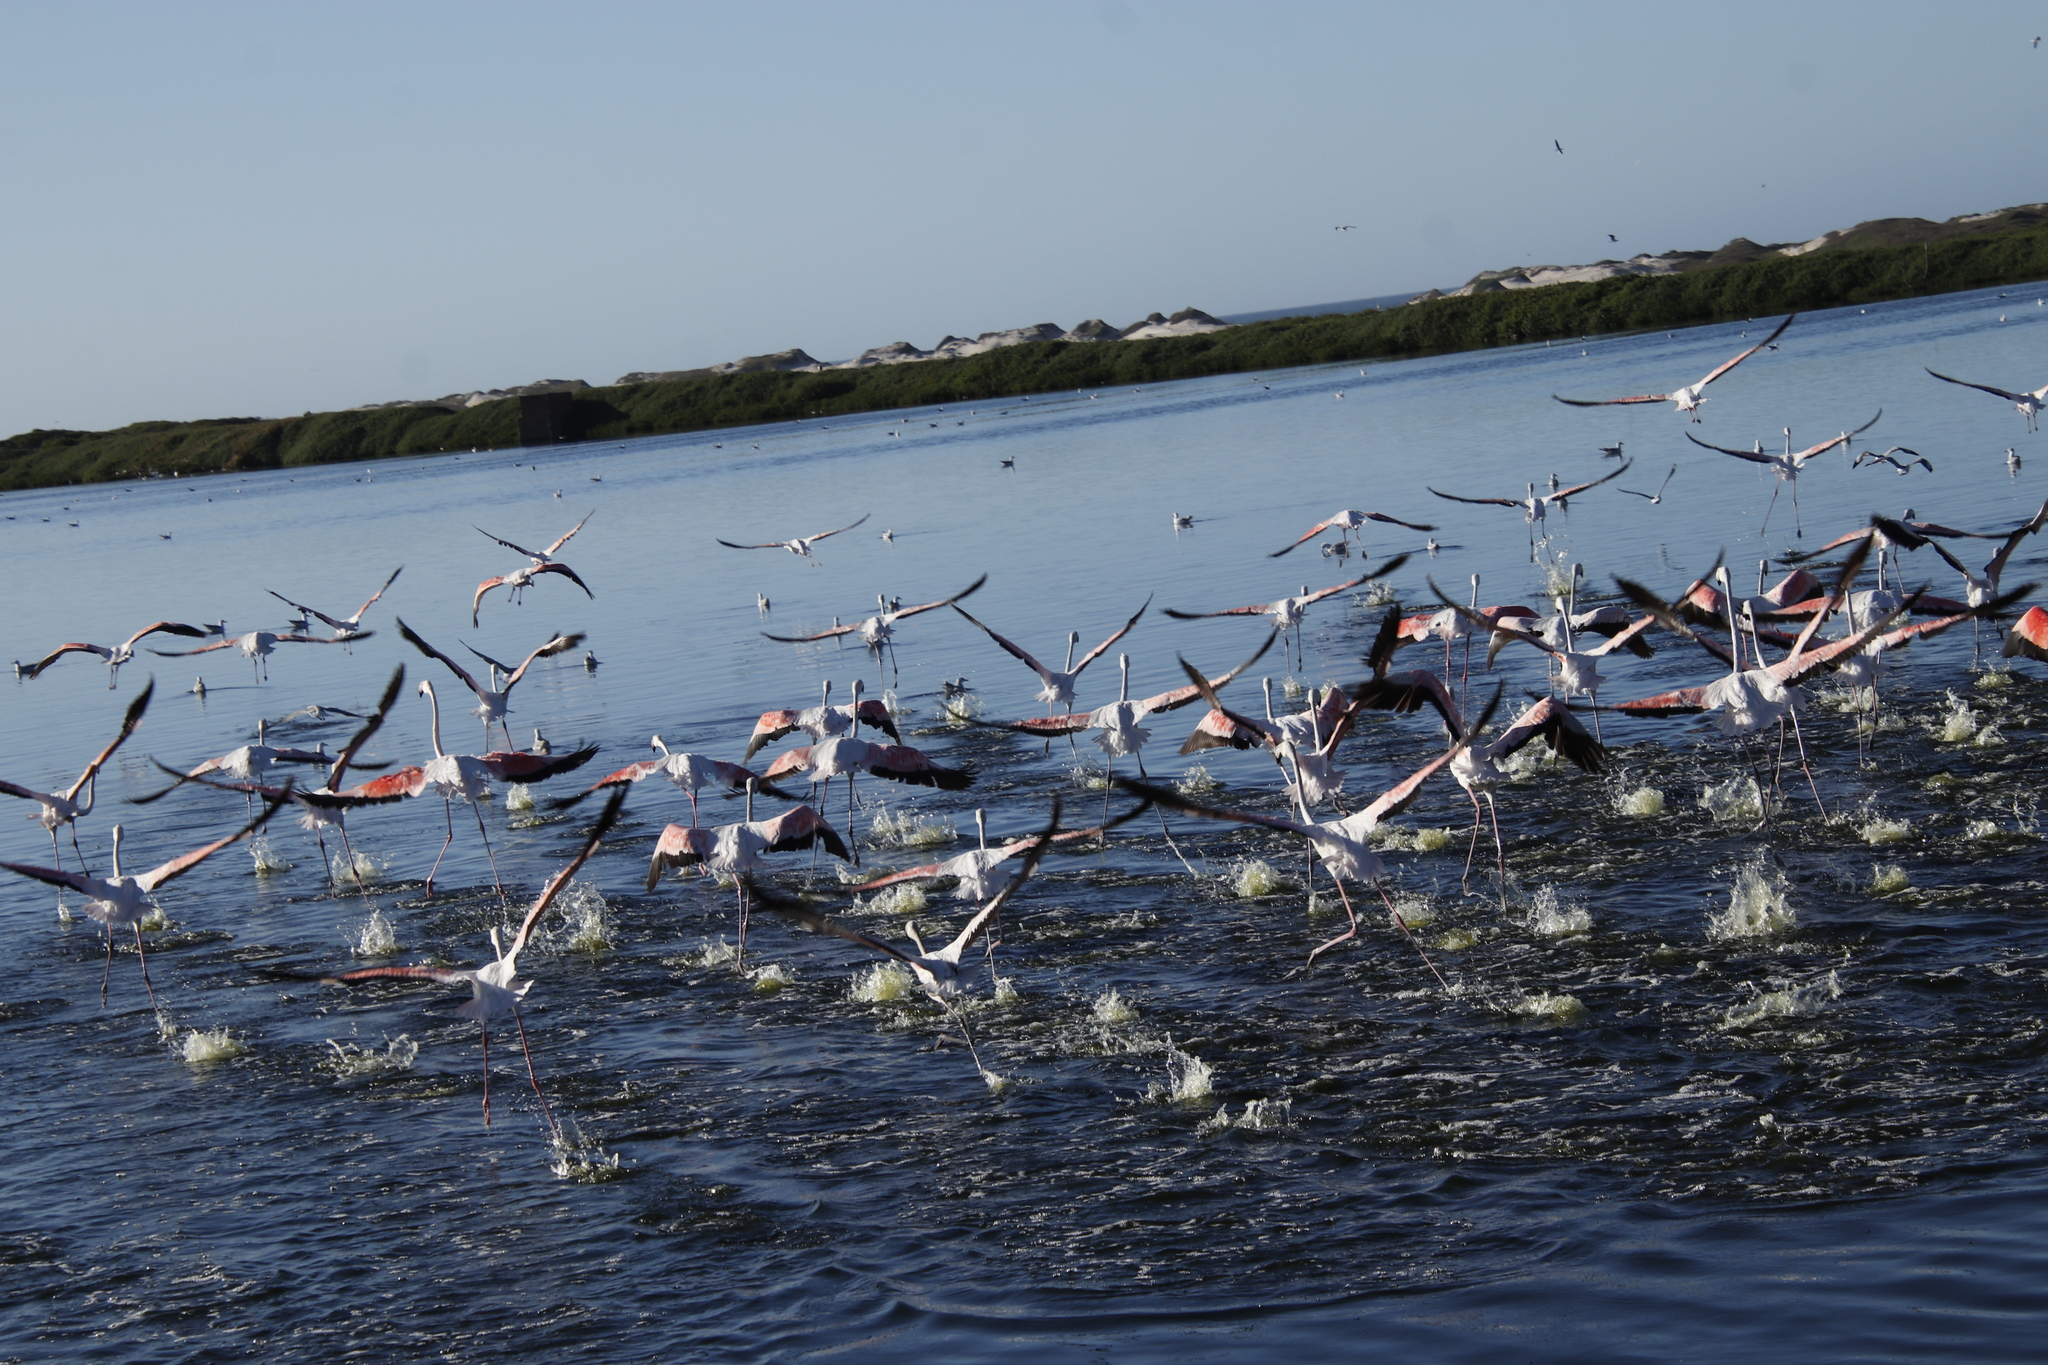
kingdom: Animalia
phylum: Chordata
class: Aves
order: Phoenicopteriformes
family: Phoenicopteridae
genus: Phoenicopterus
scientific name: Phoenicopterus roseus
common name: Greater flamingo
